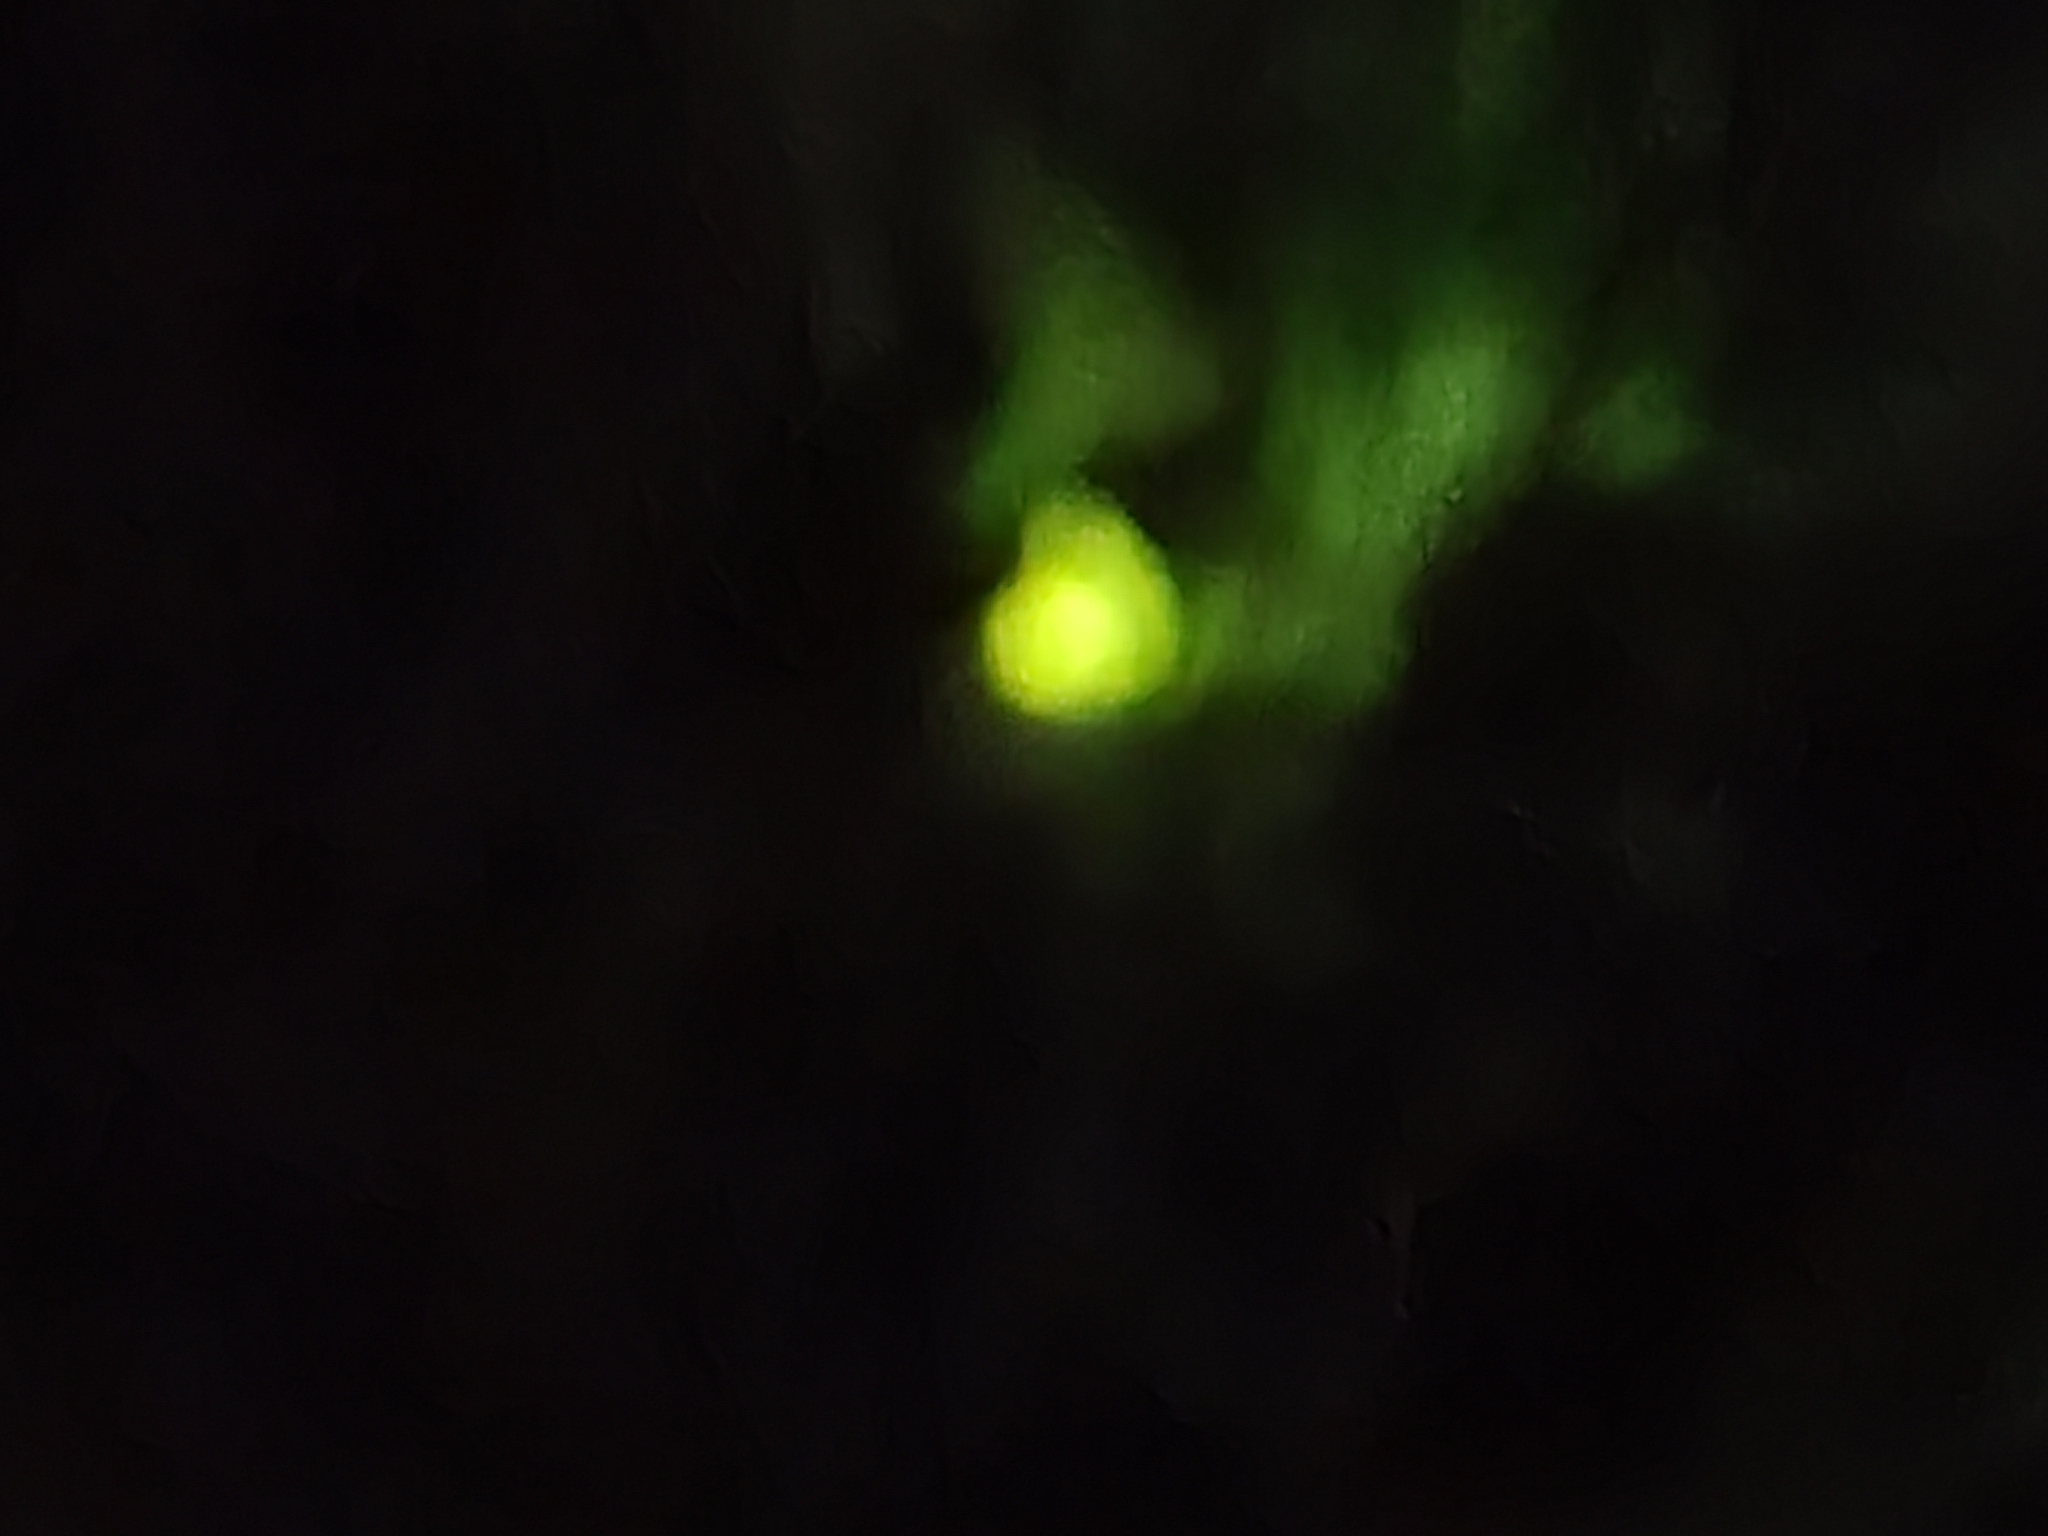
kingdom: Animalia
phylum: Arthropoda
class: Insecta
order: Coleoptera
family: Lampyridae
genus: Lamprohiza
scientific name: Lamprohiza mulsantii
